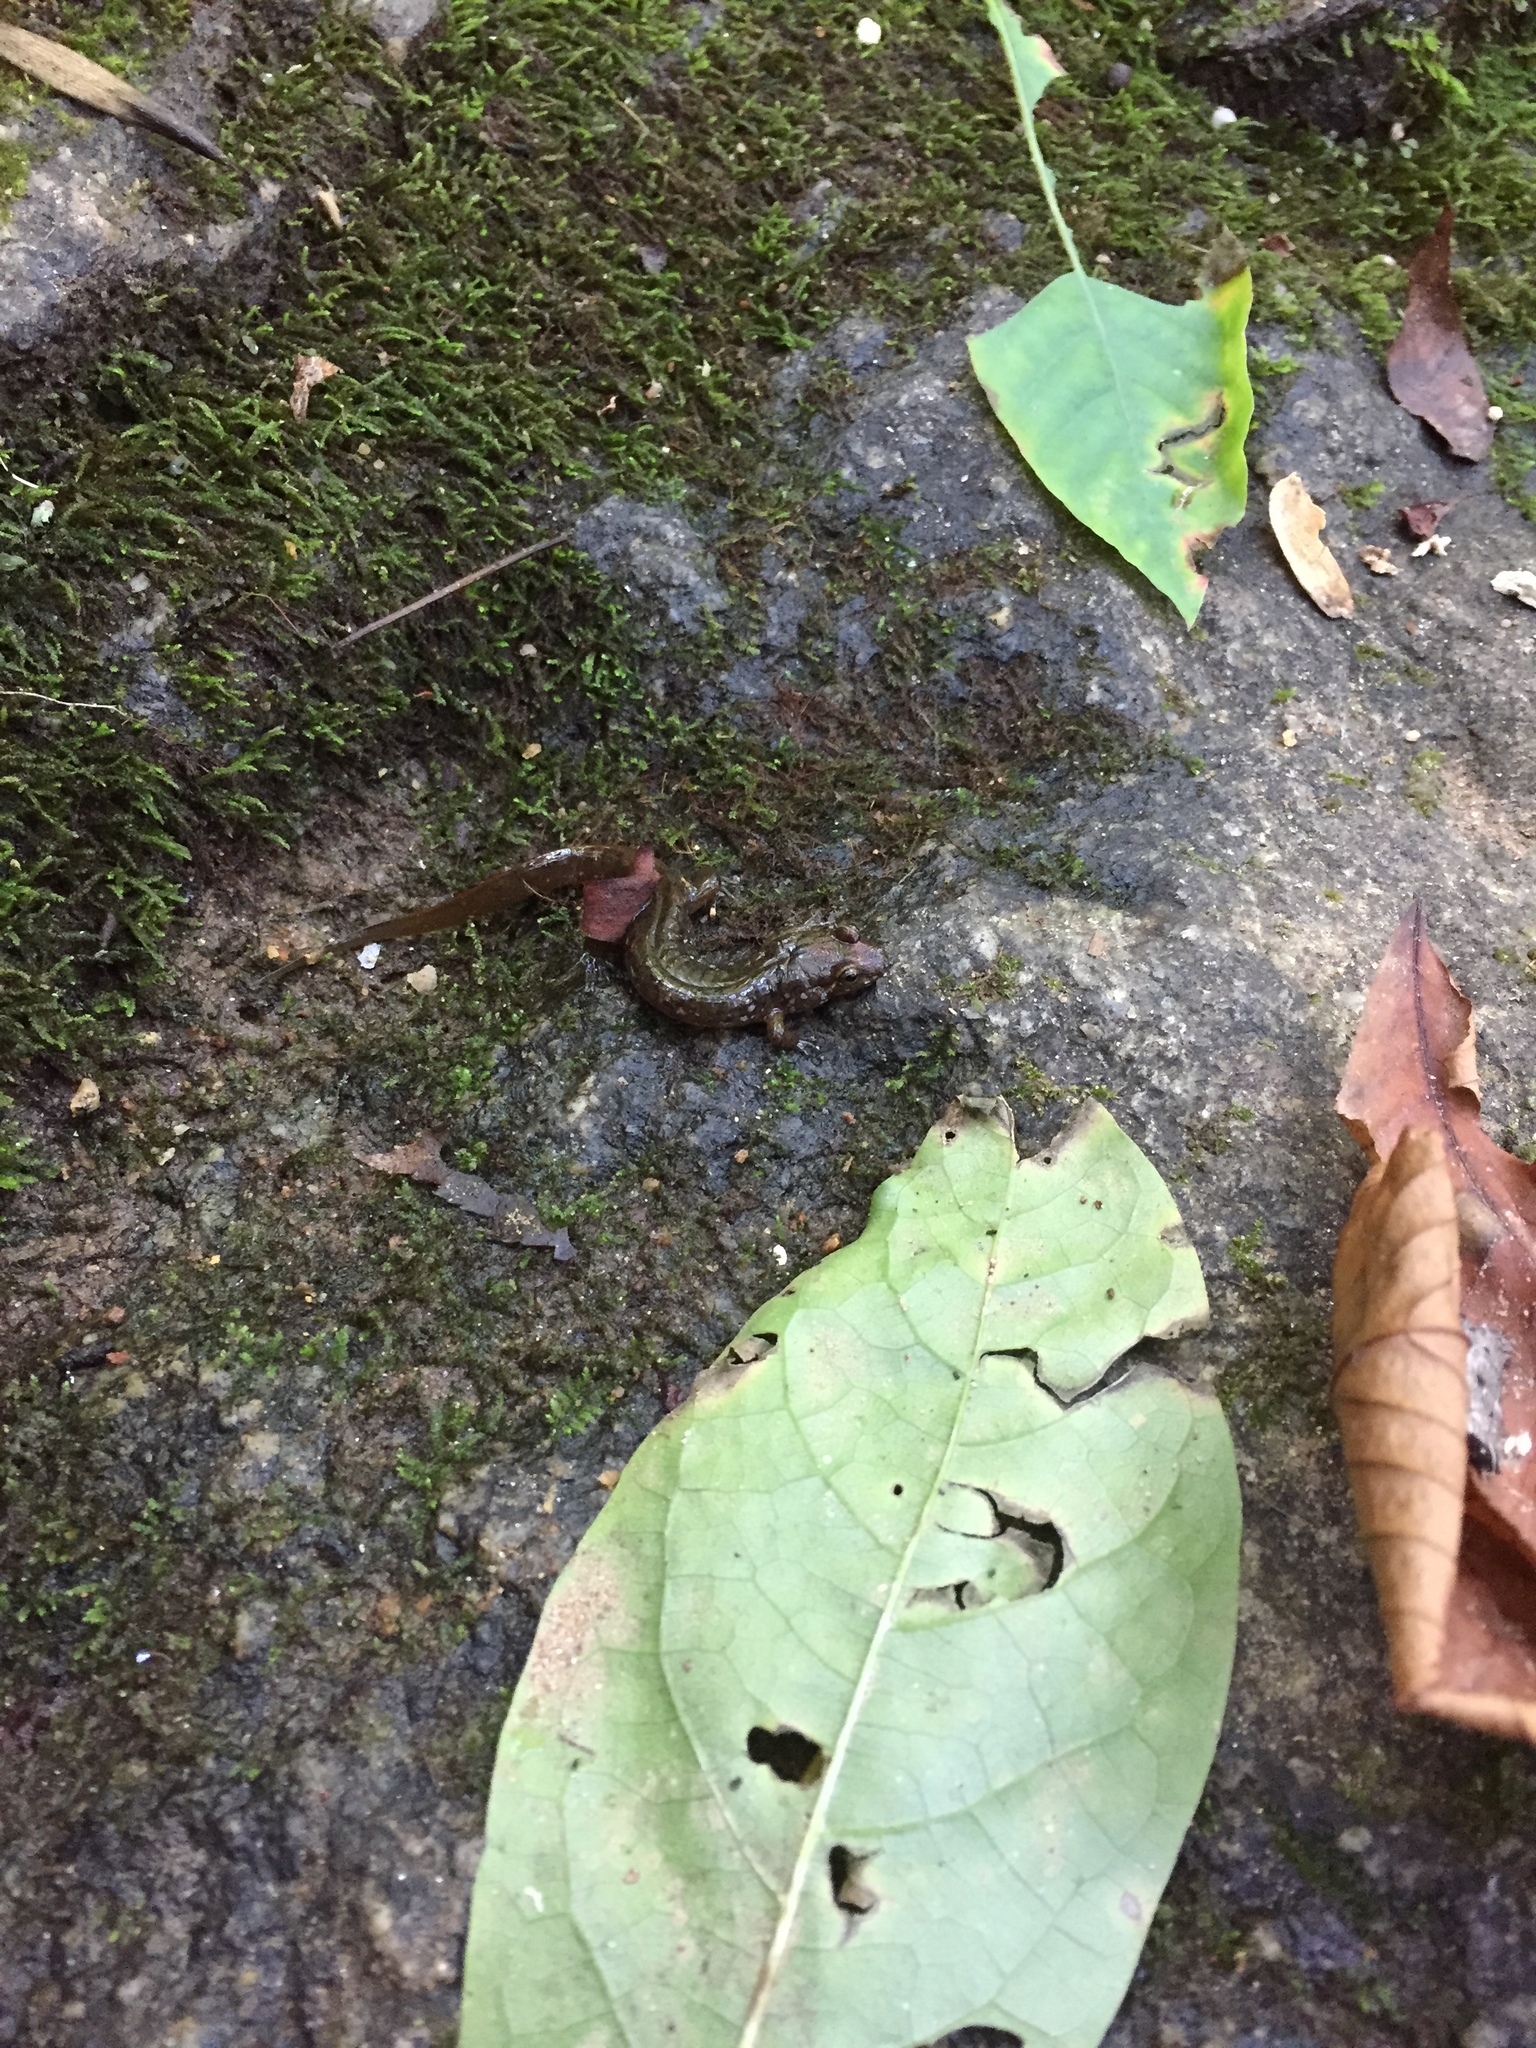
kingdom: Animalia
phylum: Chordata
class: Amphibia
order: Caudata
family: Plethodontidae
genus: Desmognathus
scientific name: Desmognathus monticola
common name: Seal salamander
